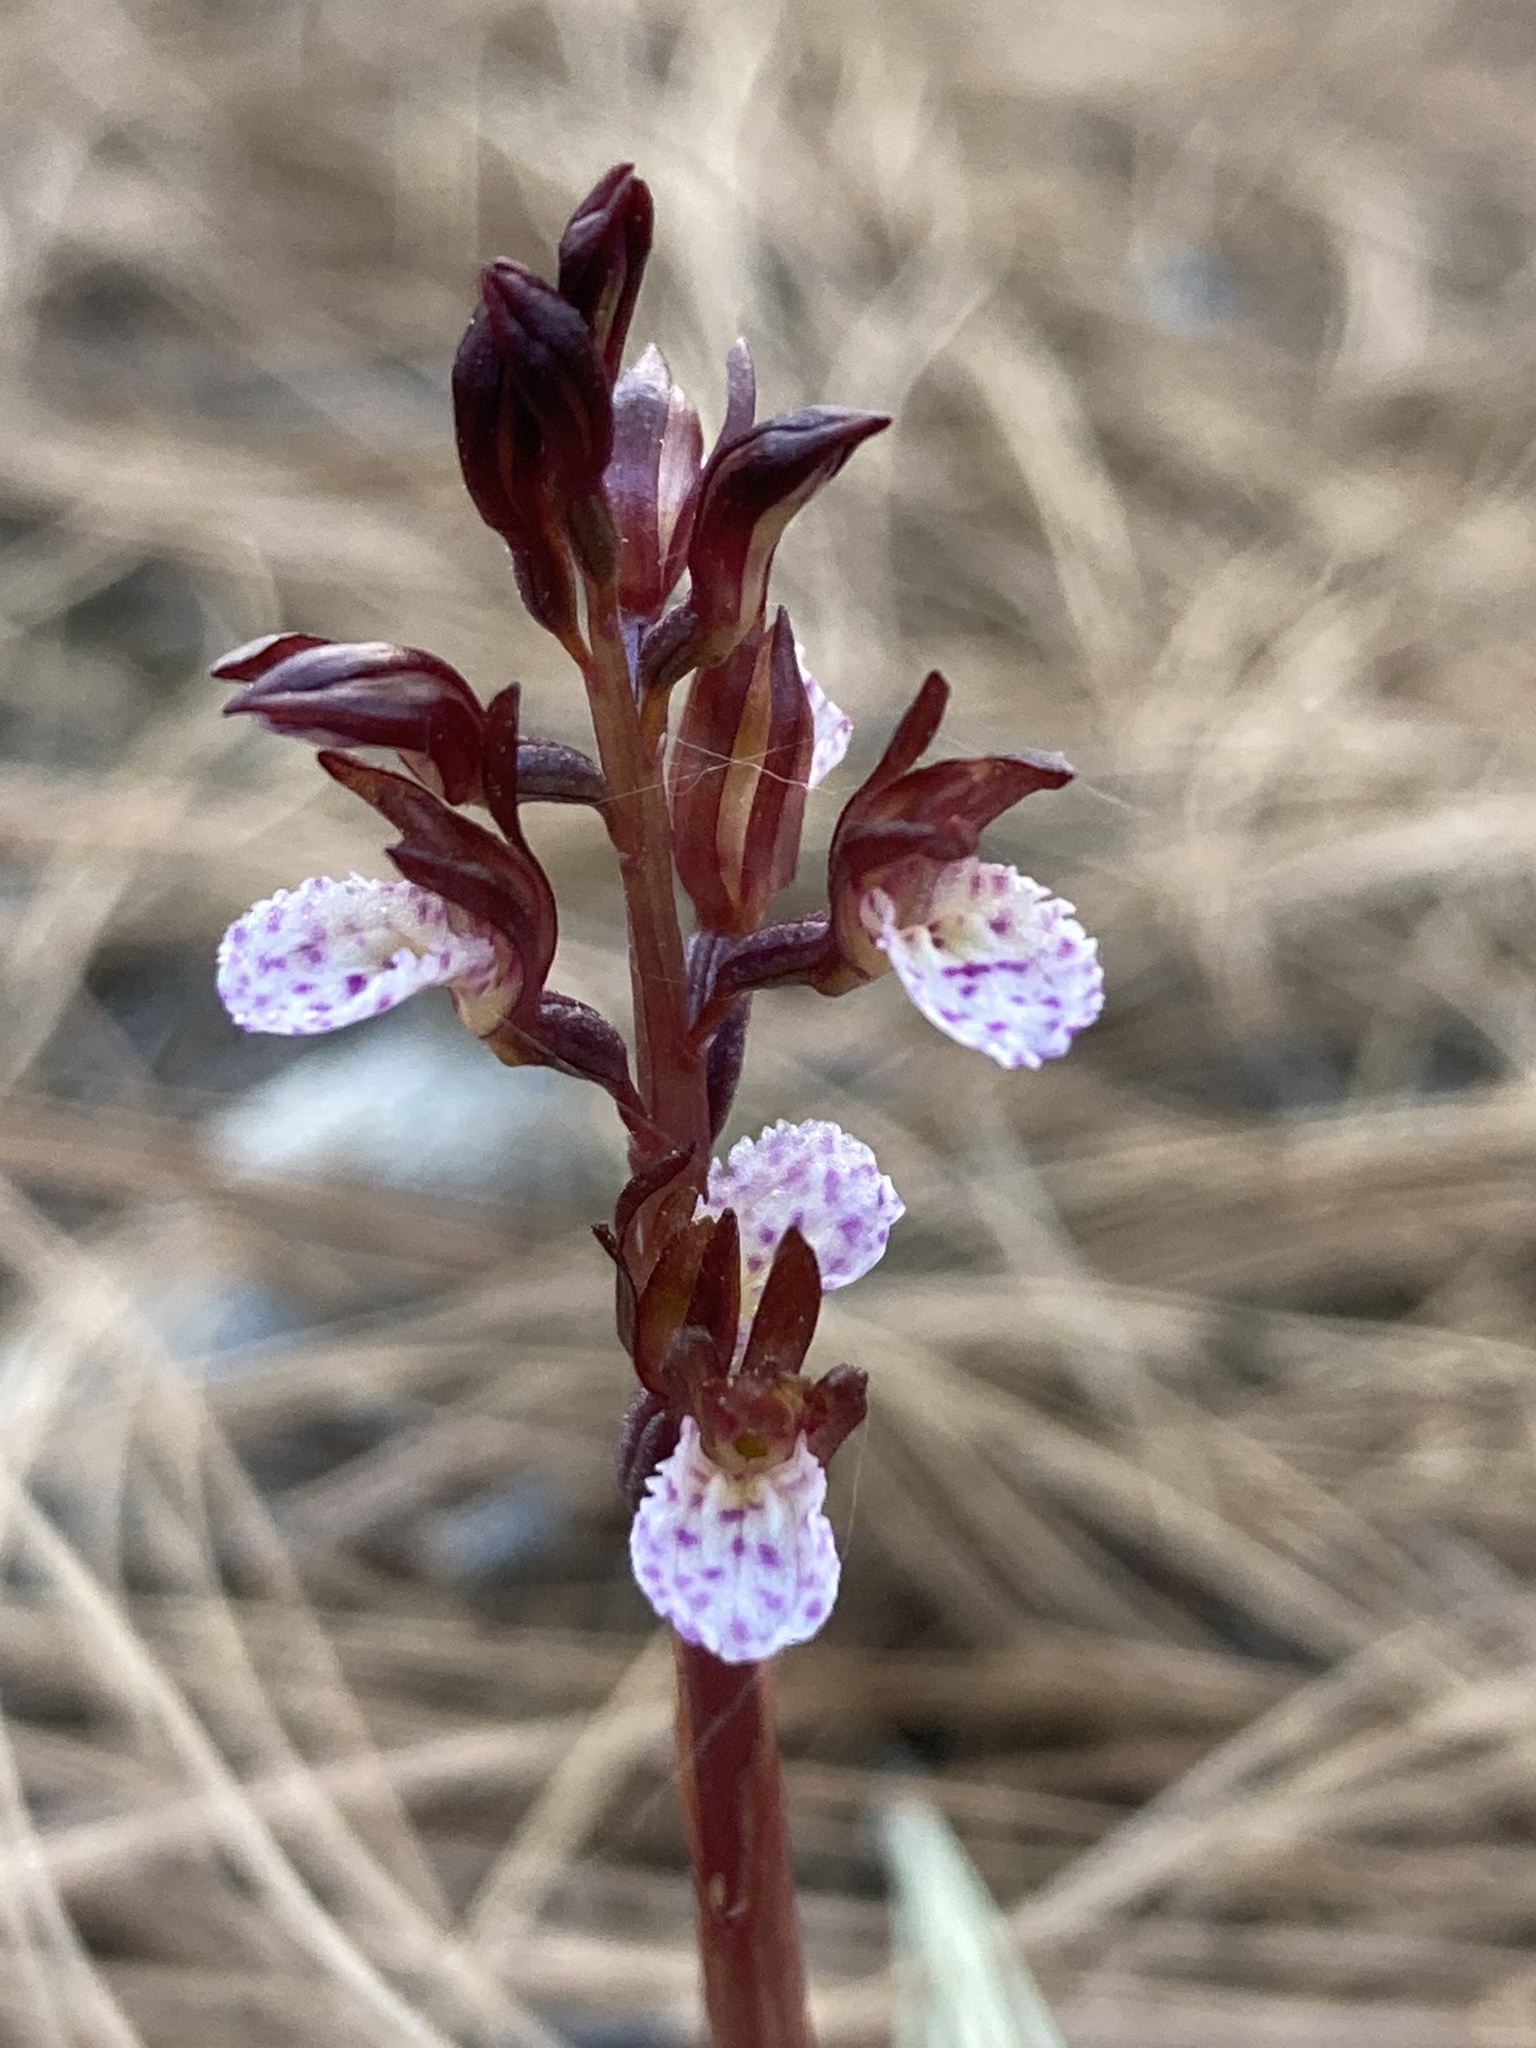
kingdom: Plantae
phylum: Tracheophyta
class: Liliopsida
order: Asparagales
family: Orchidaceae
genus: Corallorhiza
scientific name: Corallorhiza wisteriana
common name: Spring coralroot
